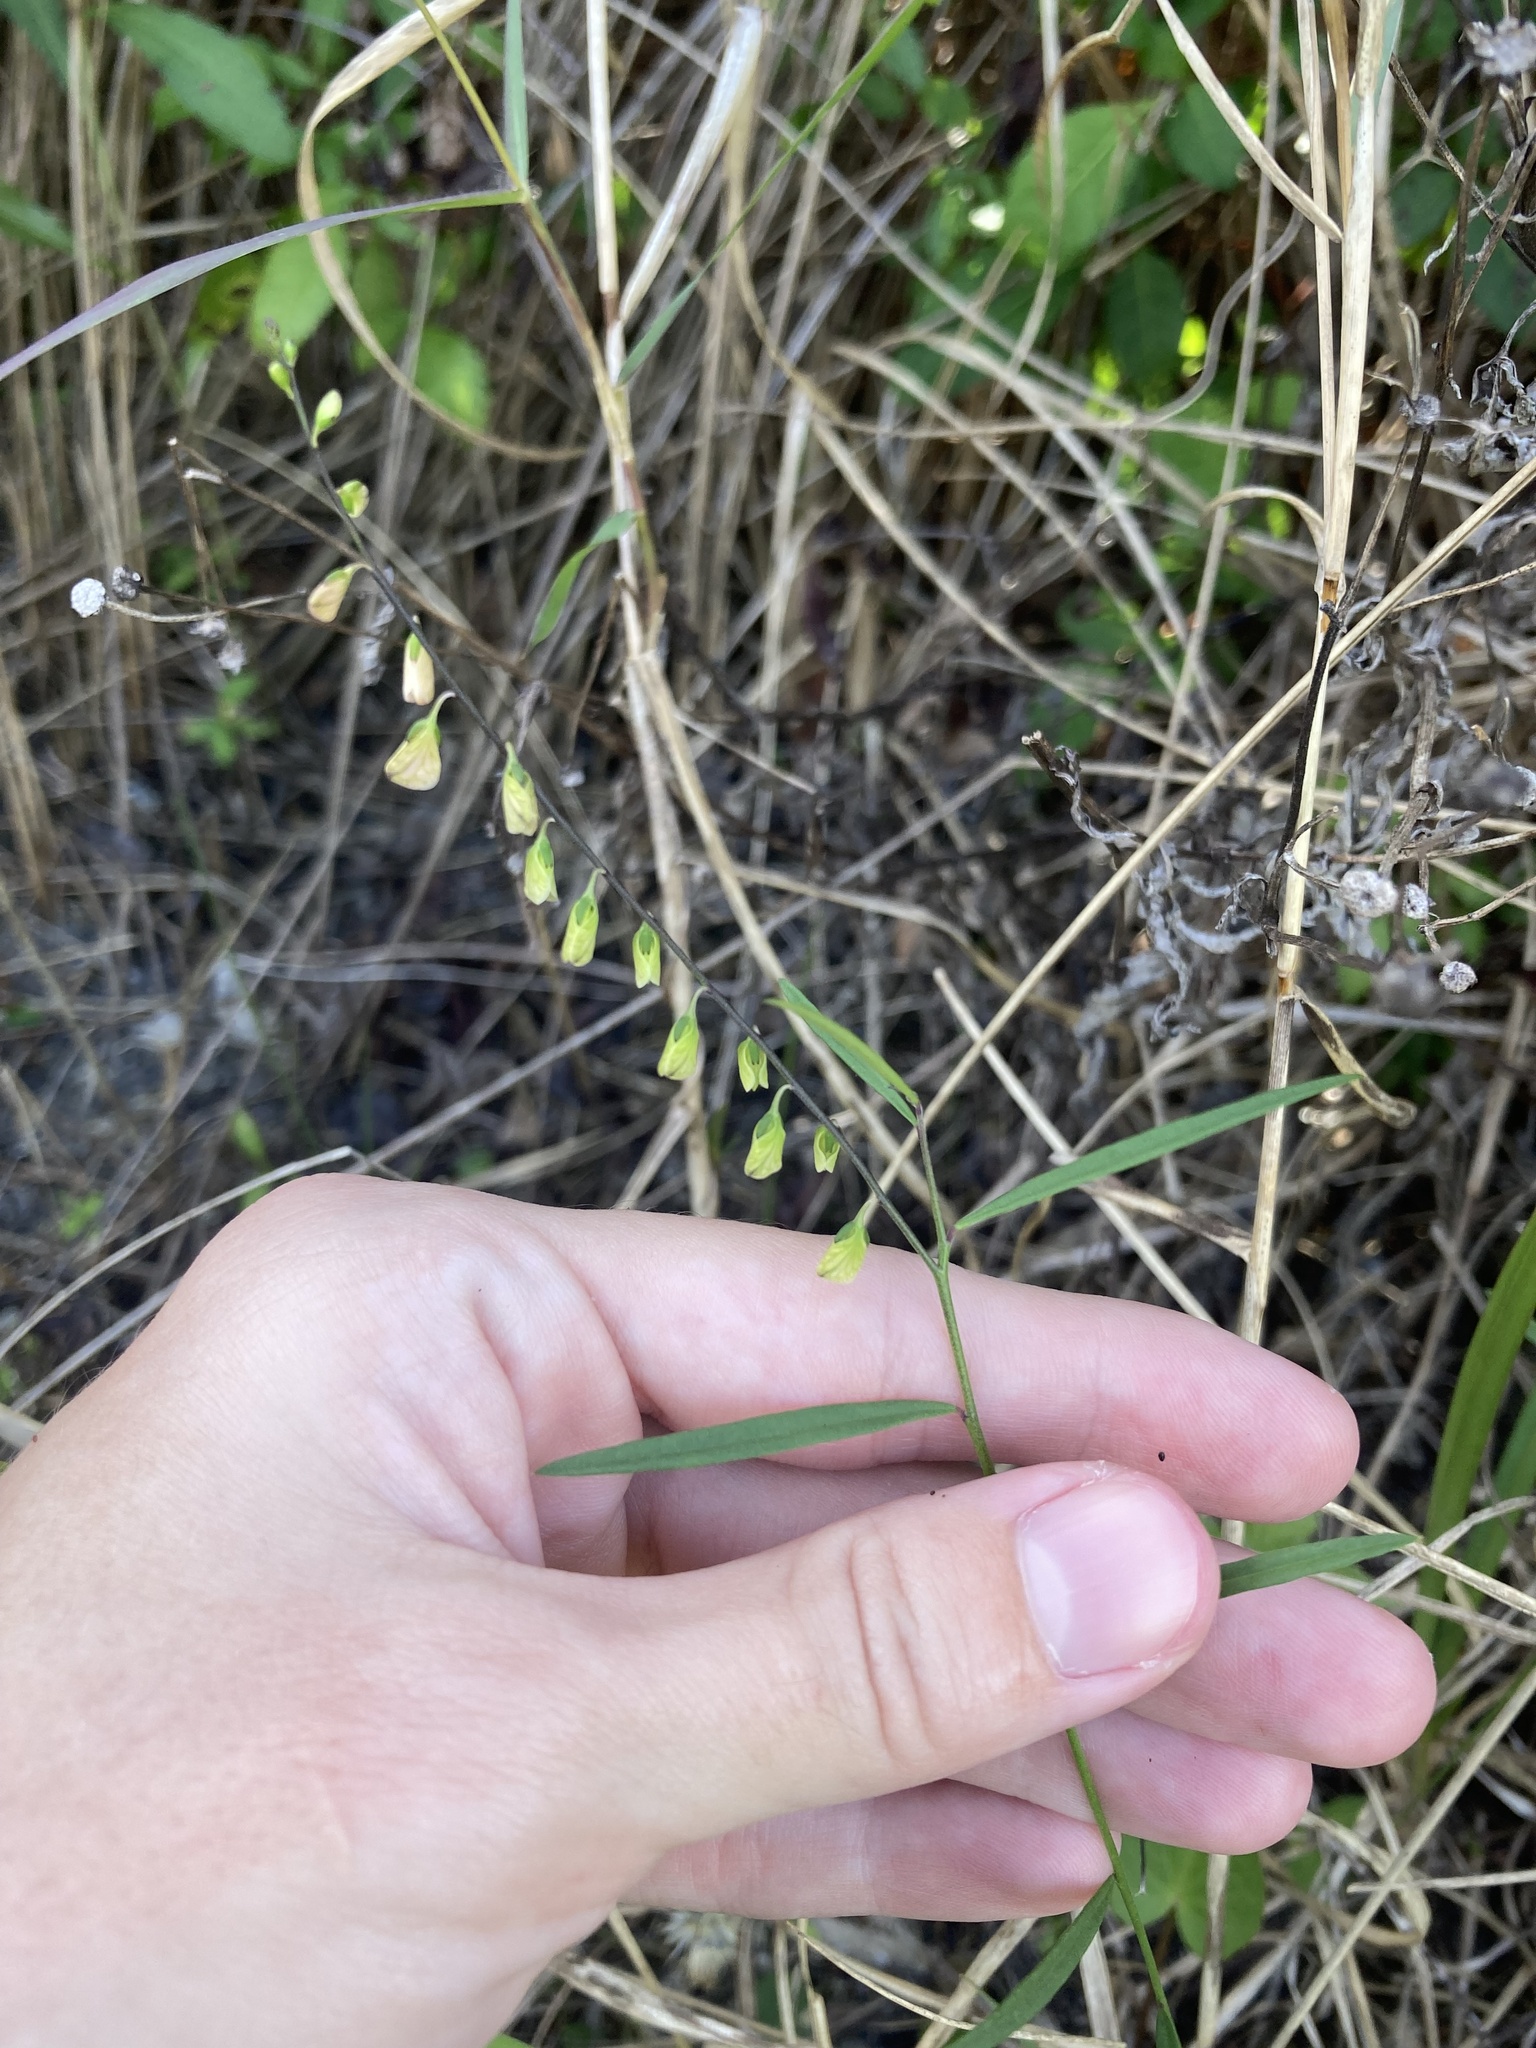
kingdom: Plantae
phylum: Tracheophyta
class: Magnoliopsida
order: Fabales
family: Polygalaceae
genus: Asemeia
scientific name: Asemeia grandiflora
